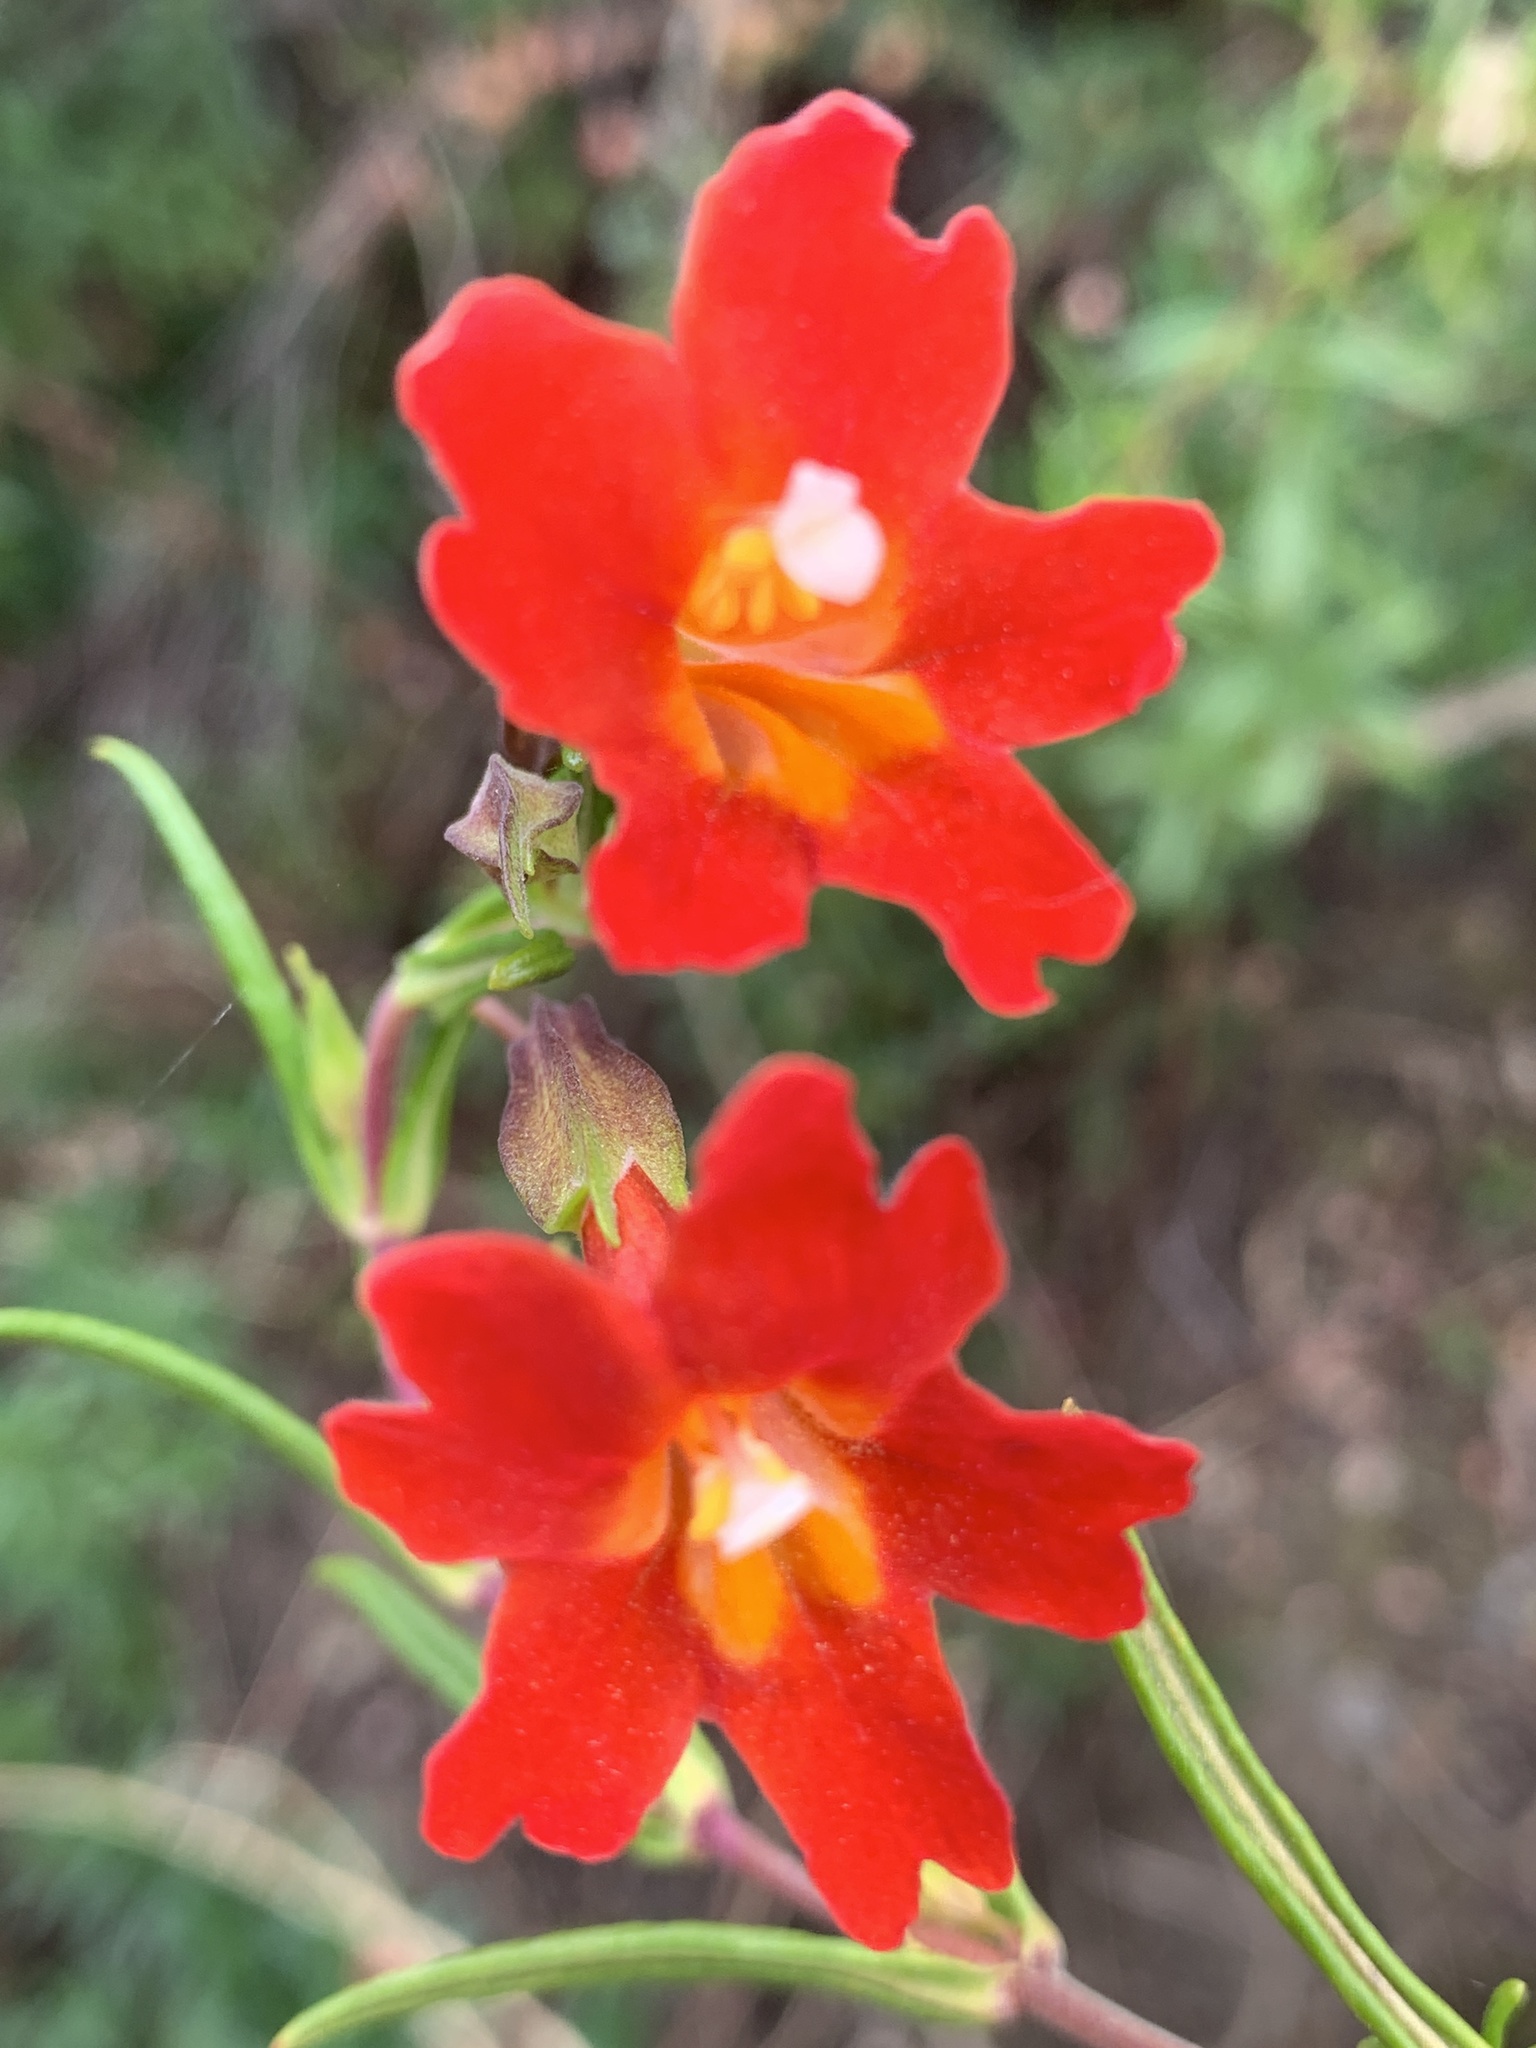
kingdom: Plantae
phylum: Tracheophyta
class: Magnoliopsida
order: Lamiales
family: Phrymaceae
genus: Diplacus
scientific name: Diplacus puniceus
